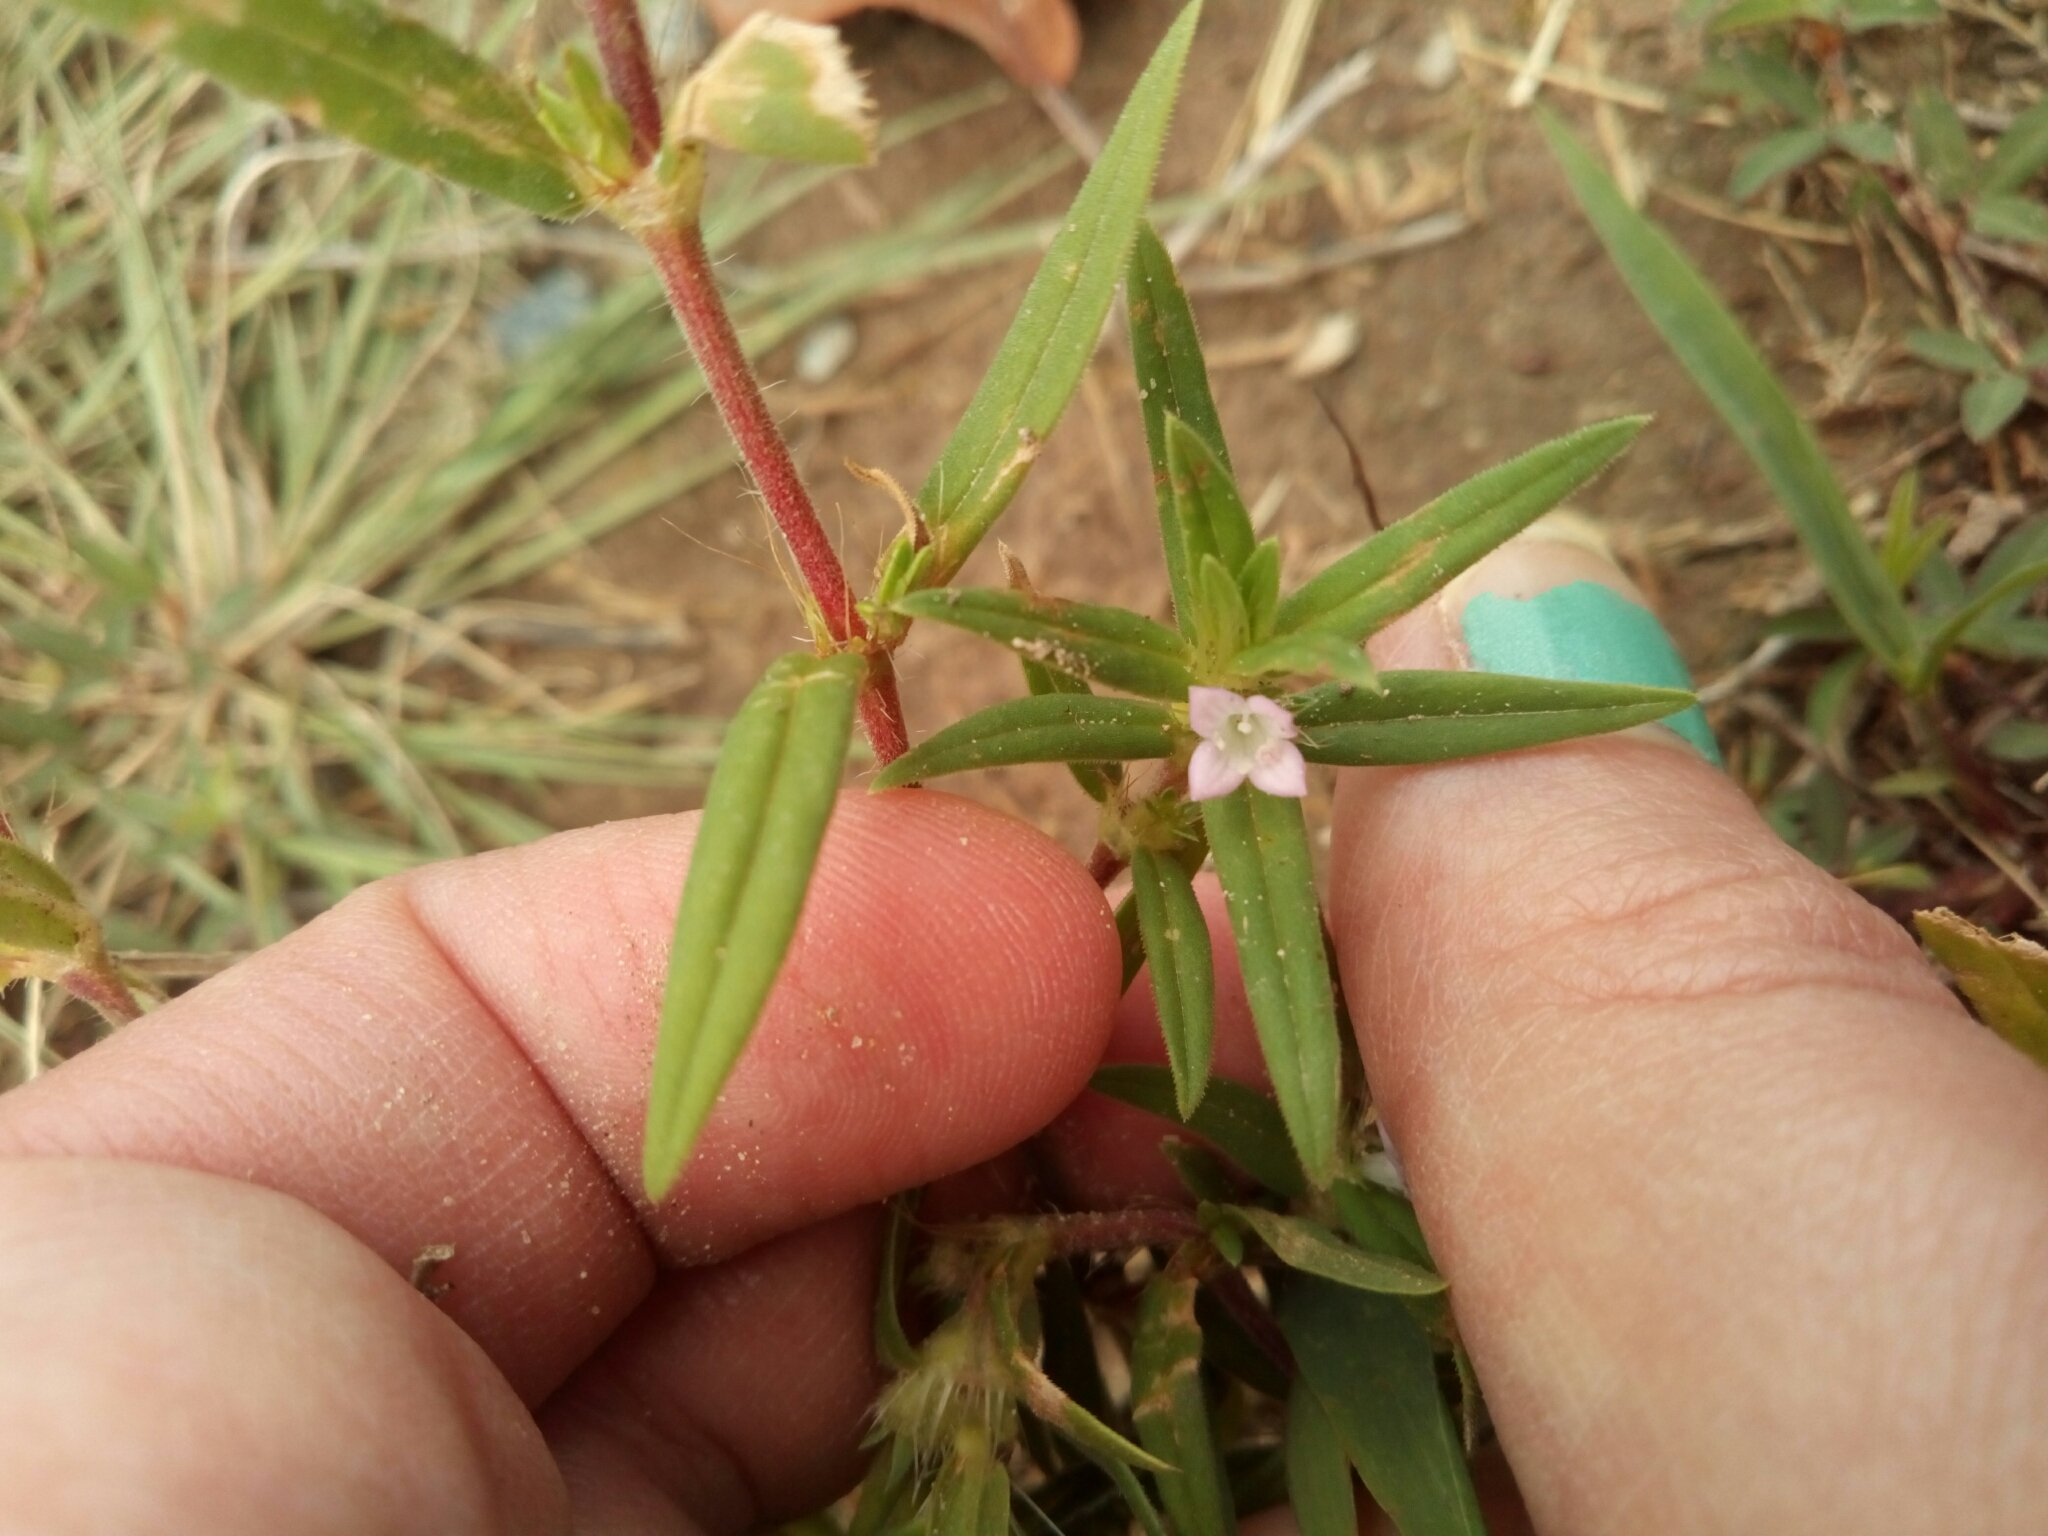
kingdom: Plantae
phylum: Tracheophyta
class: Magnoliopsida
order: Gentianales
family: Rubiaceae
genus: Hexasepalum
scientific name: Hexasepalum teres
